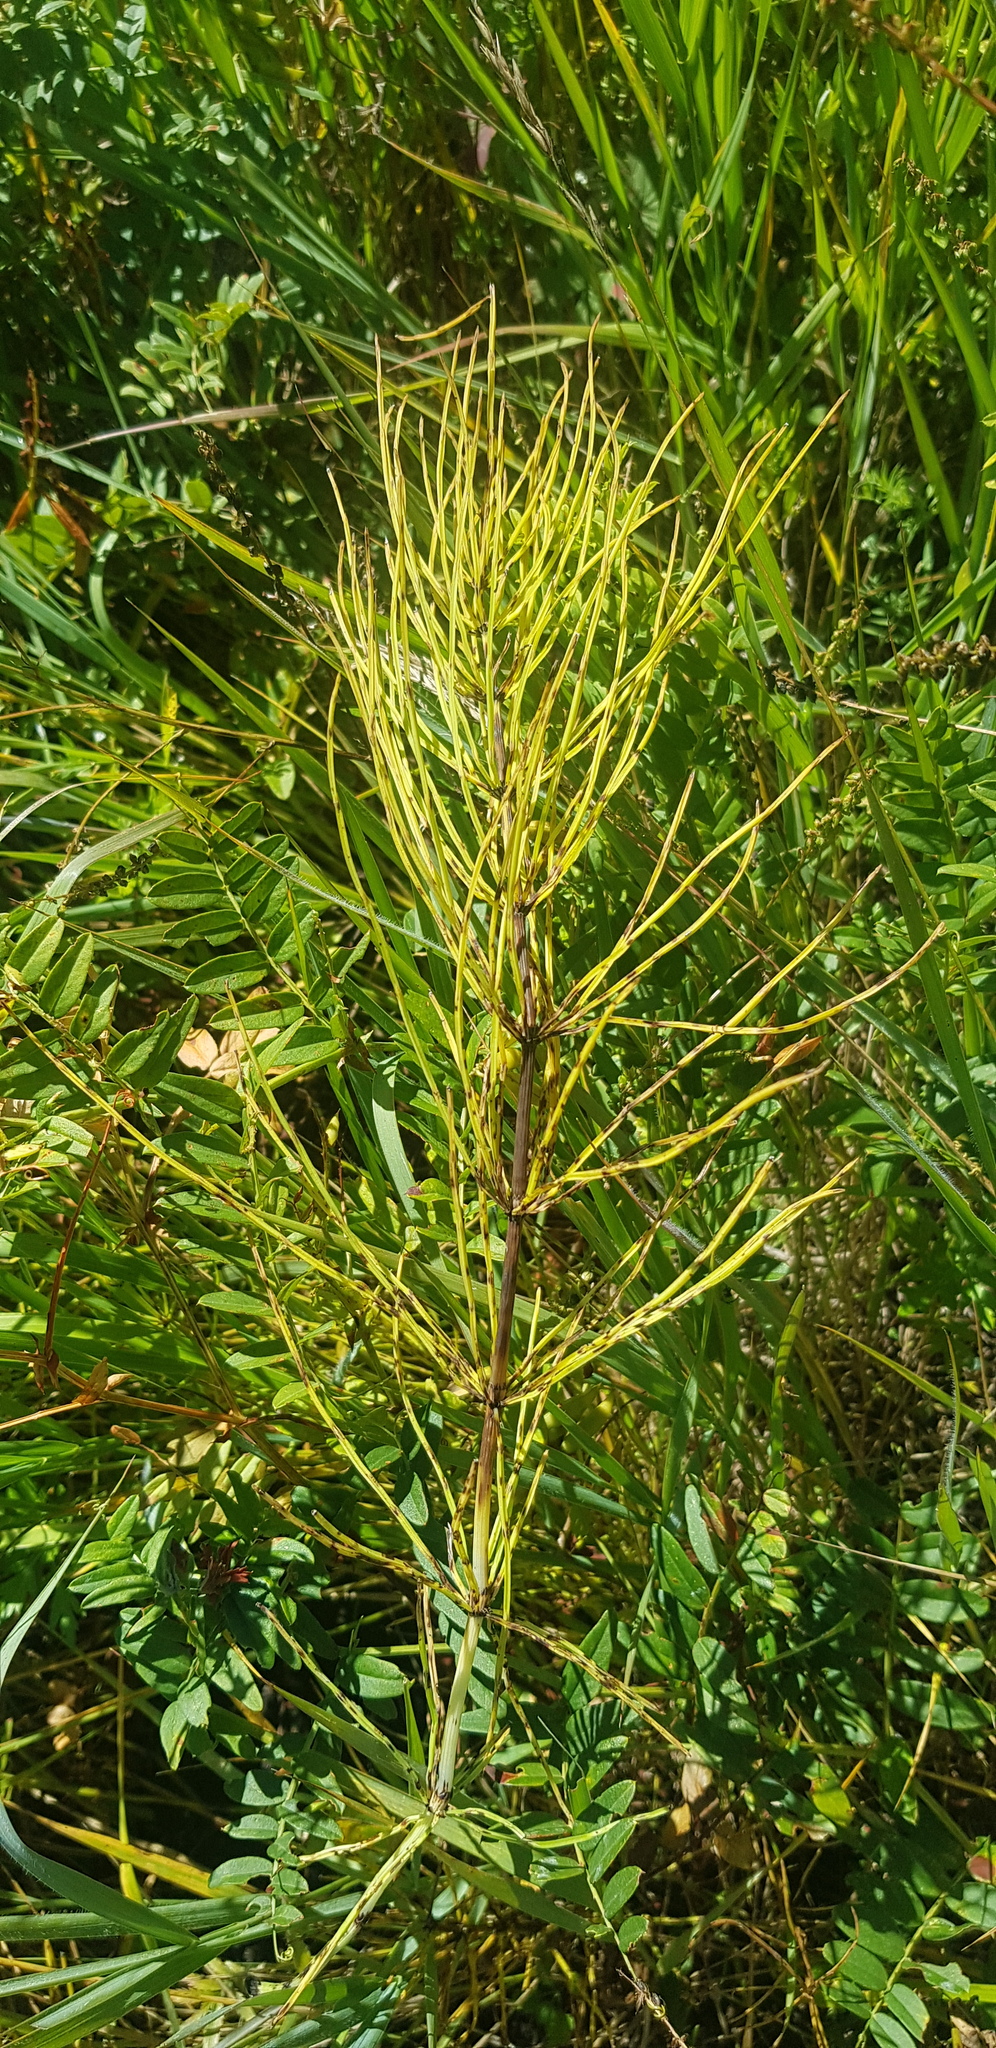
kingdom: Plantae
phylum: Tracheophyta
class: Polypodiopsida
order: Equisetales
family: Equisetaceae
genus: Equisetum
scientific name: Equisetum arvense
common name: Field horsetail
